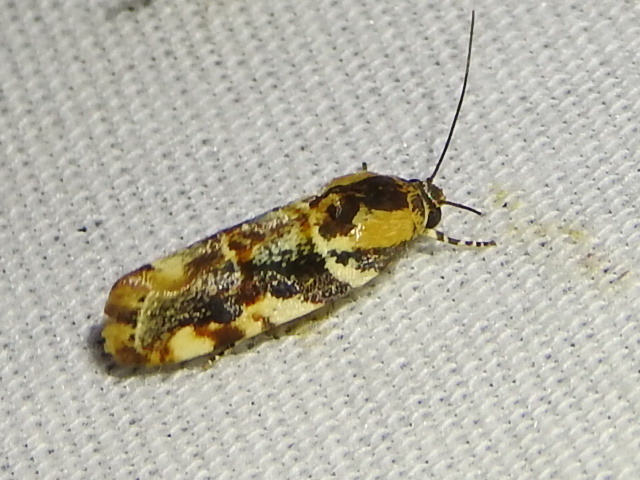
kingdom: Animalia
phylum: Arthropoda
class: Insecta
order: Lepidoptera
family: Noctuidae
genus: Spragueia
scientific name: Spragueia jaguaralis
